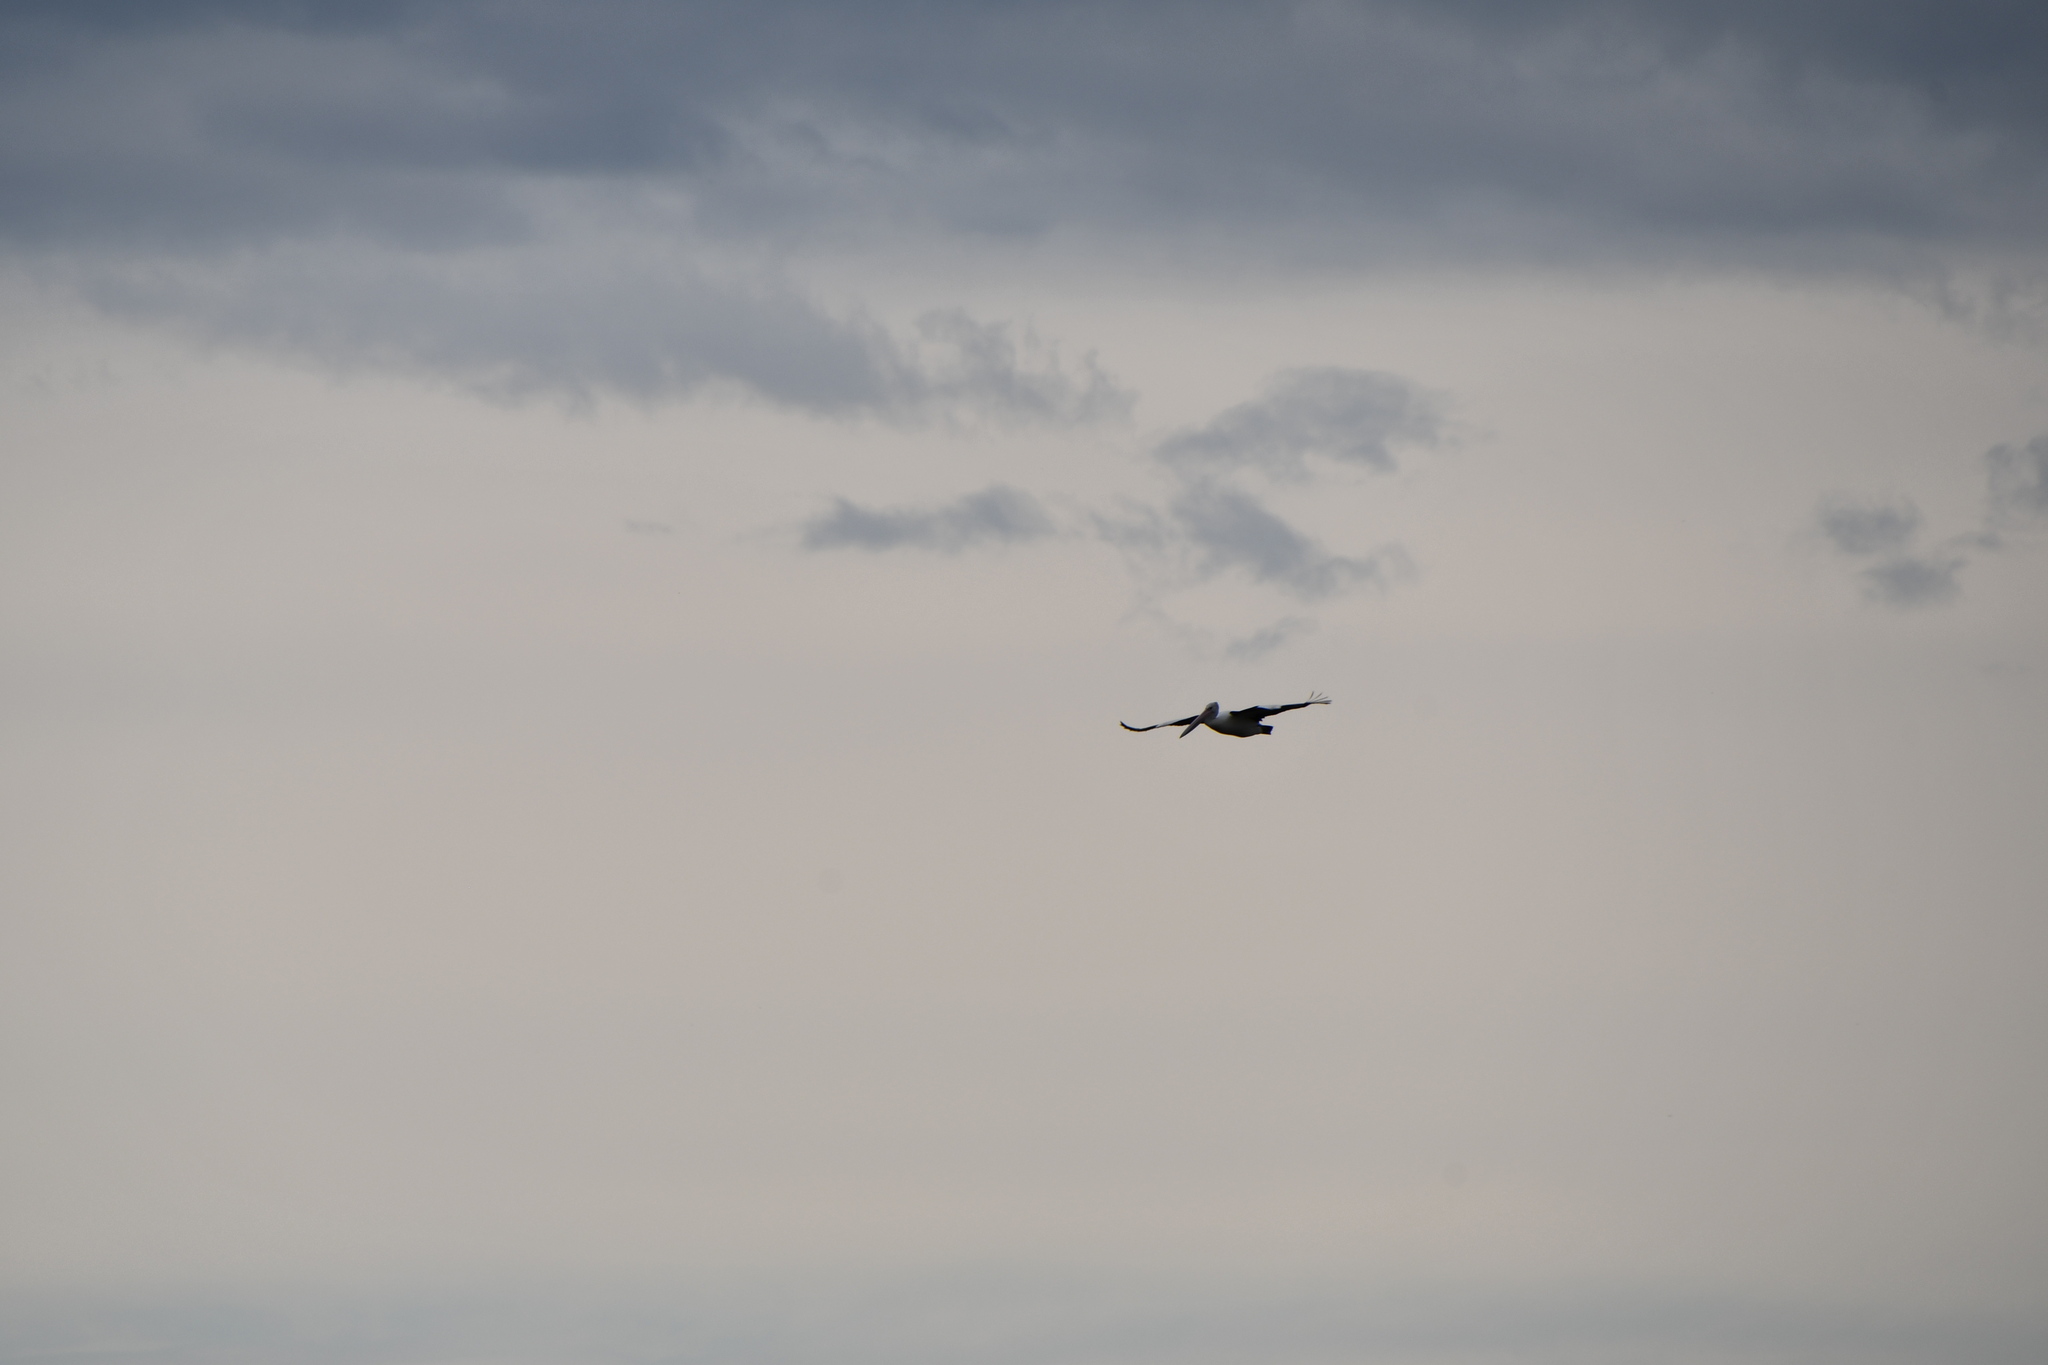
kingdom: Animalia
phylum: Chordata
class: Aves
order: Pelecaniformes
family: Pelecanidae
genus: Pelecanus
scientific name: Pelecanus conspicillatus
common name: Australian pelican
